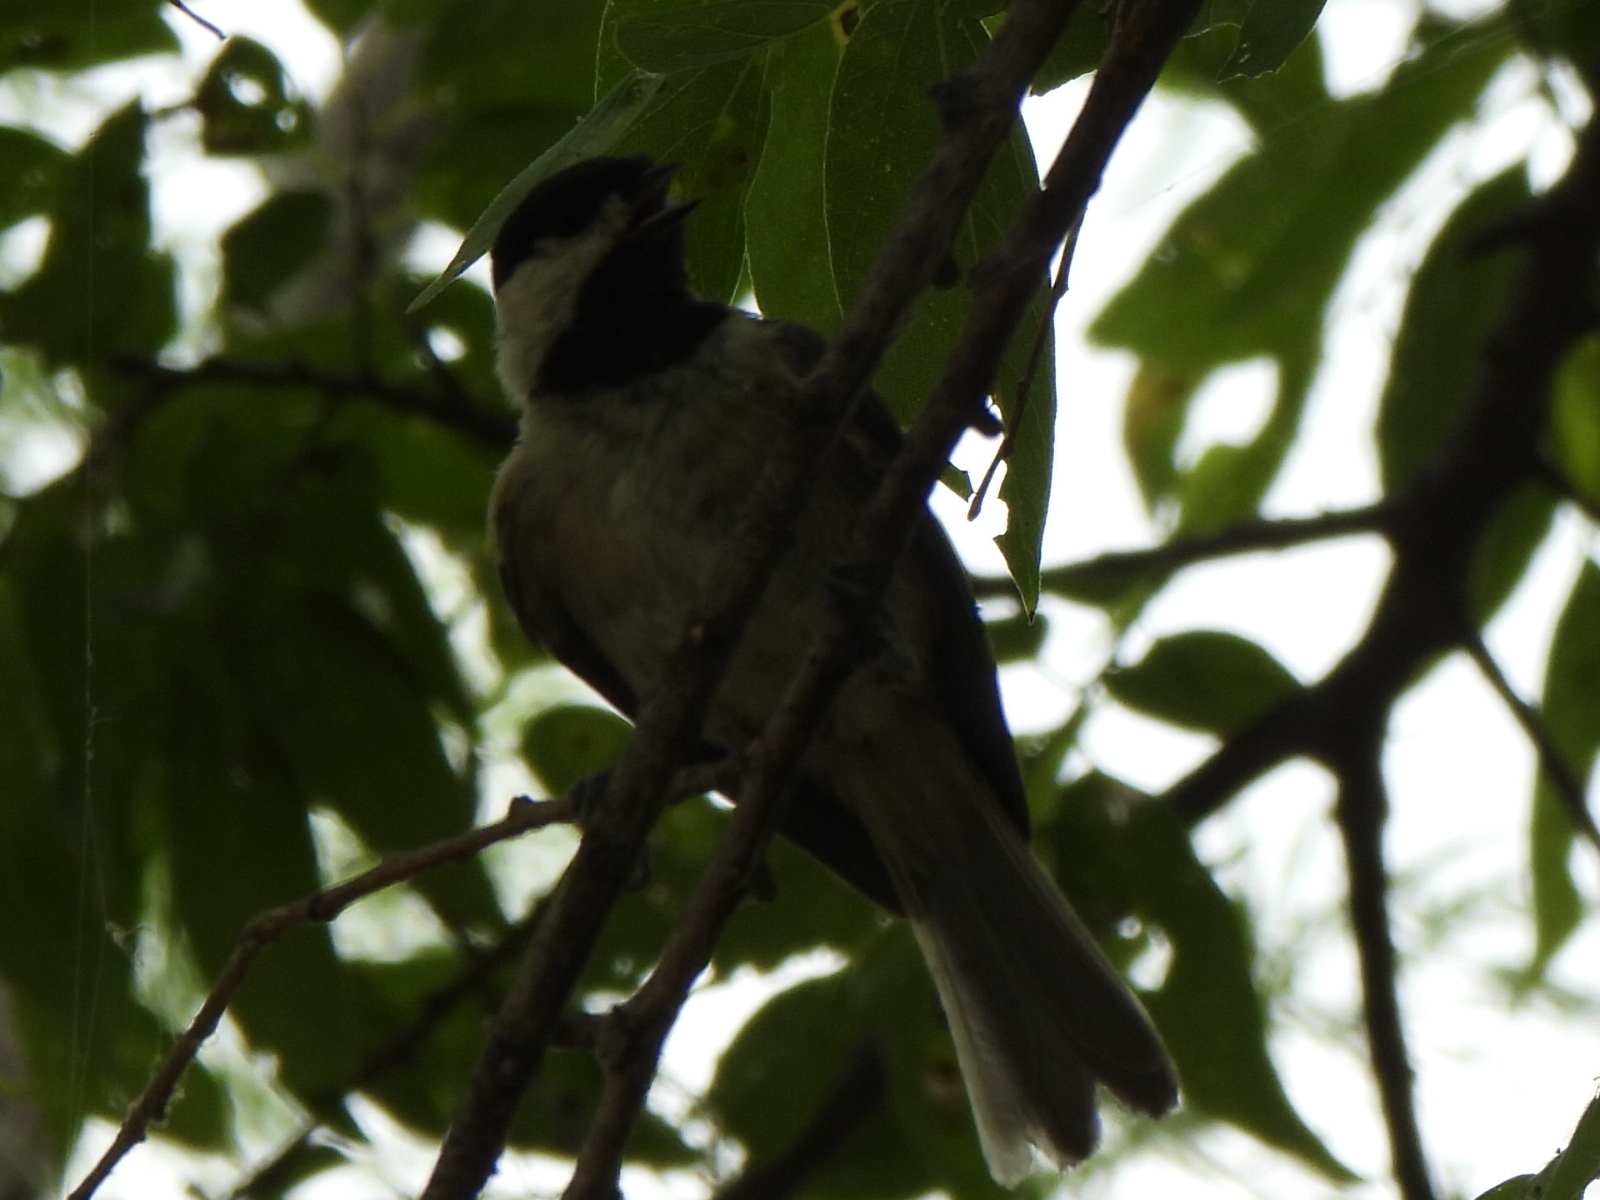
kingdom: Animalia
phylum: Chordata
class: Aves
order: Passeriformes
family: Paridae
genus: Poecile
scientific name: Poecile carolinensis
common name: Carolina chickadee
